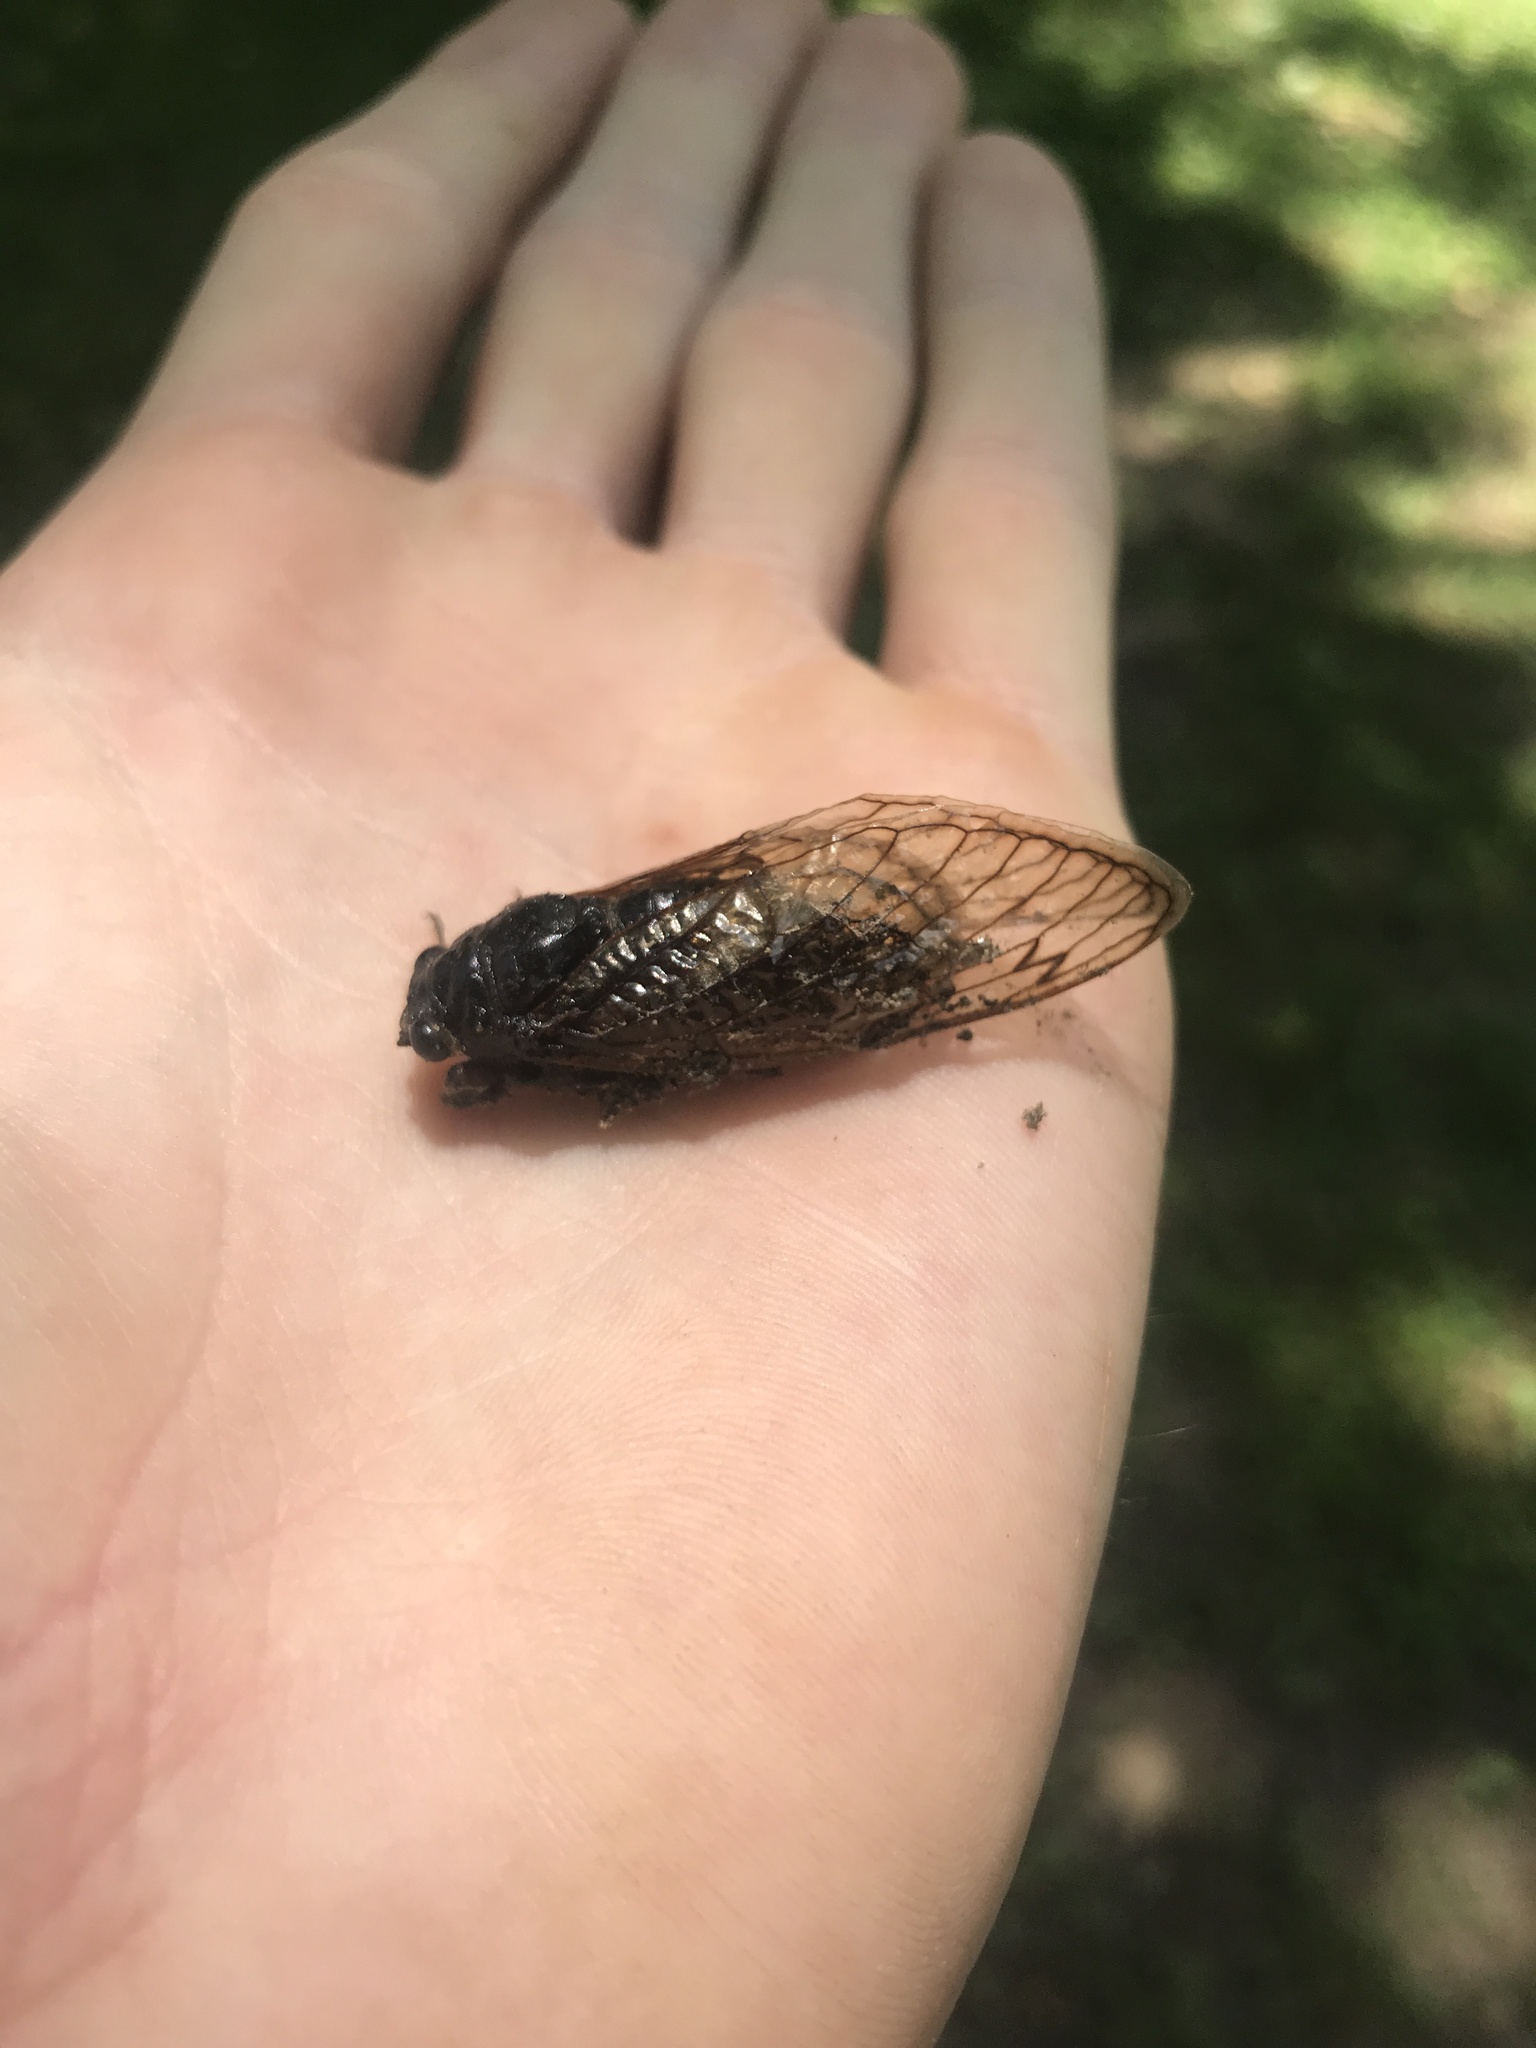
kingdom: Animalia
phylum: Arthropoda
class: Insecta
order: Hemiptera
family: Cicadidae
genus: Magicicada
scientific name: Magicicada
